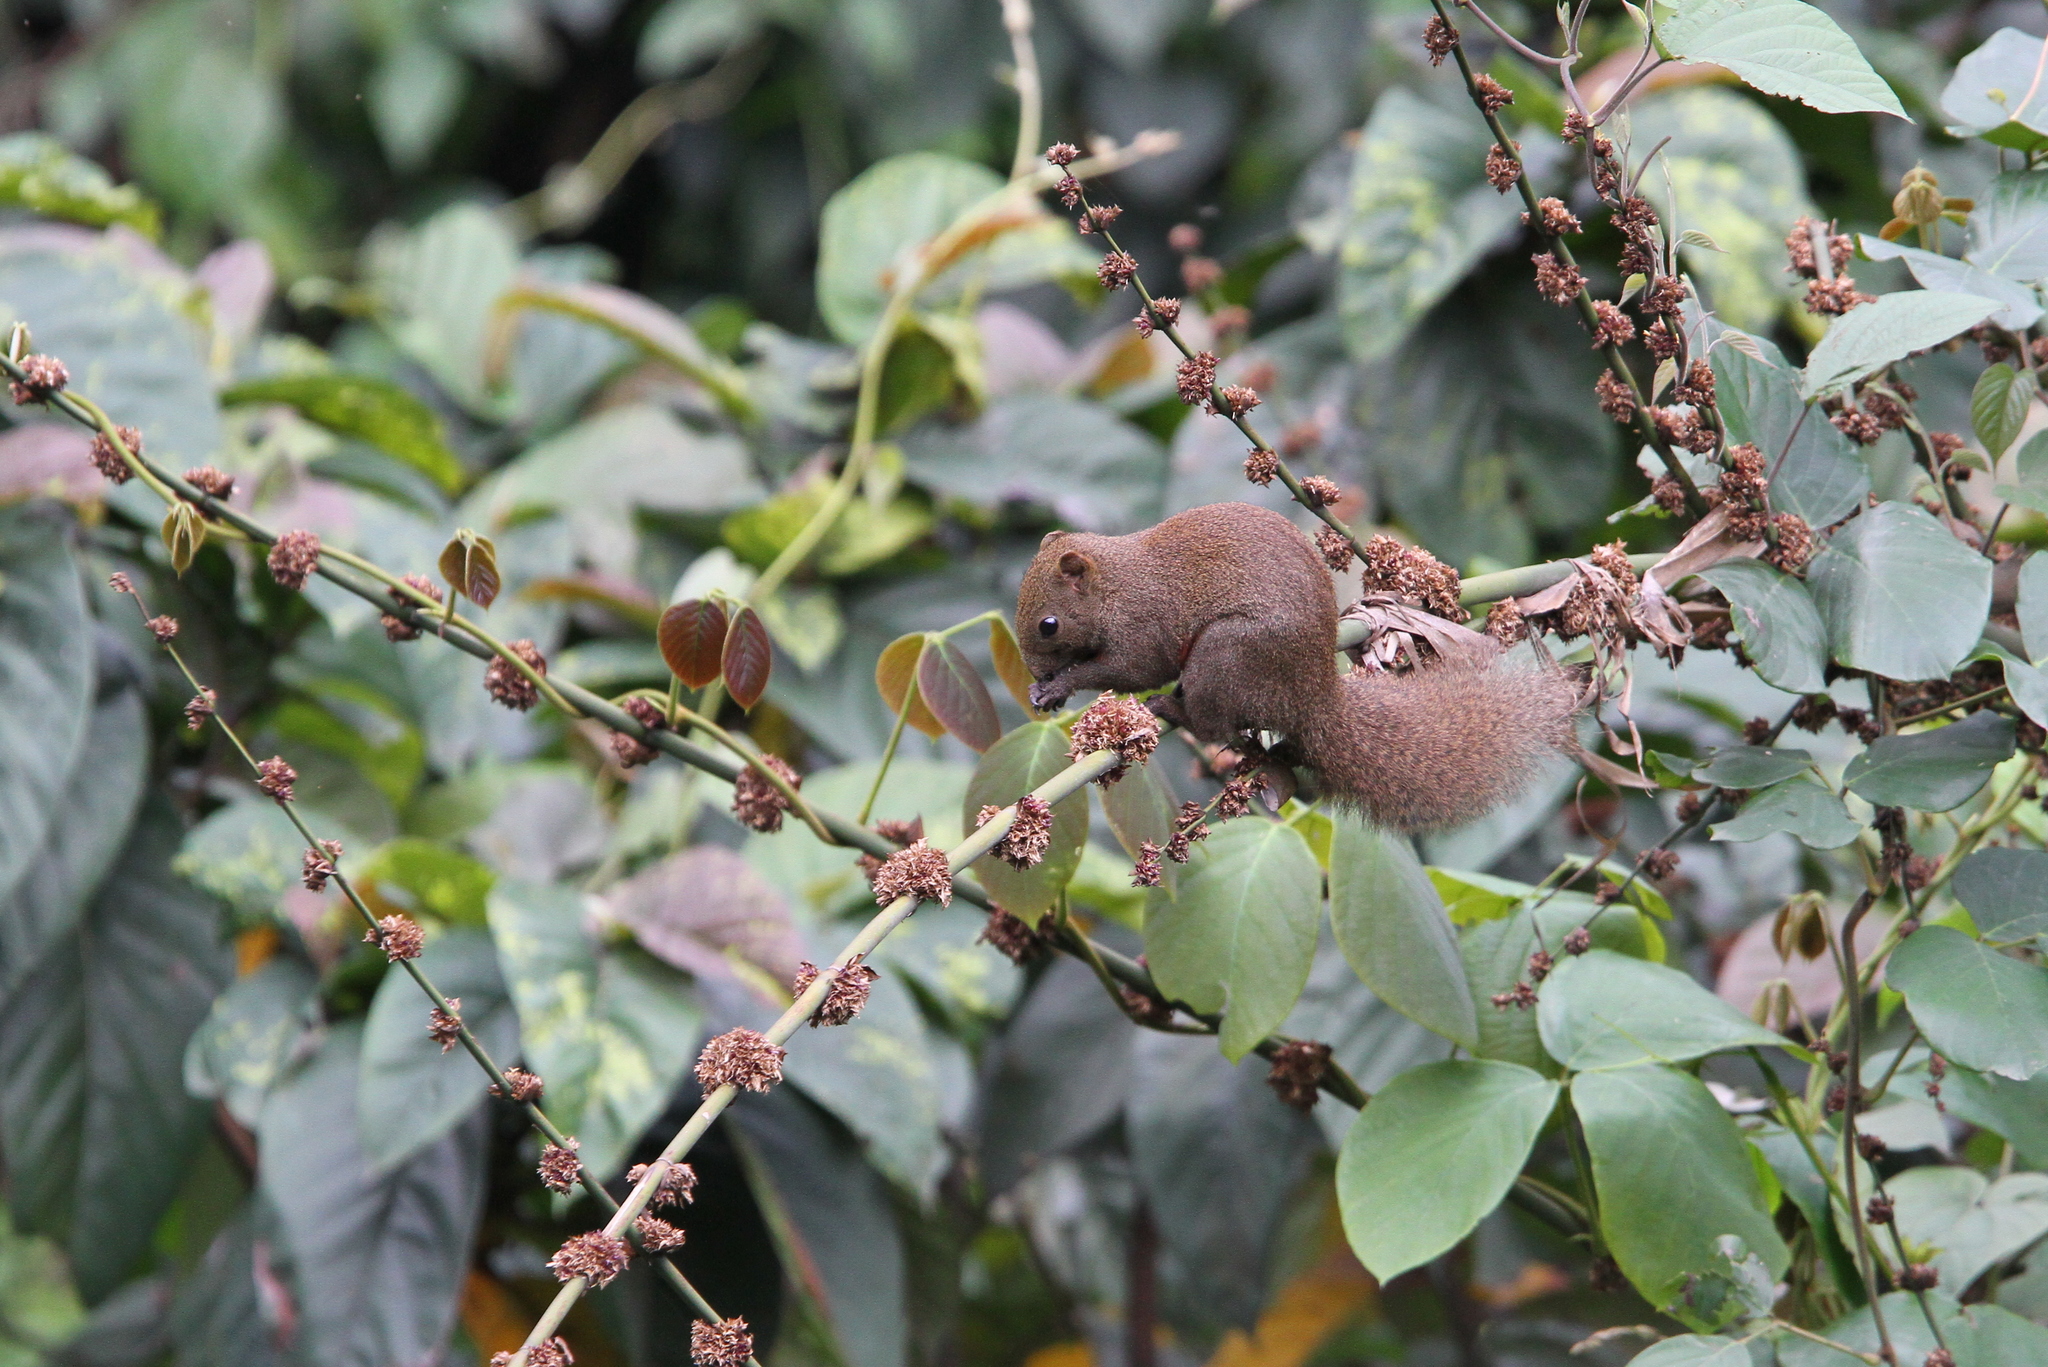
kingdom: Animalia
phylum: Chordata
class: Mammalia
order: Rodentia
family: Sciuridae
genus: Callosciurus
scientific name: Callosciurus erythraeus
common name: Pallas's squirrel
